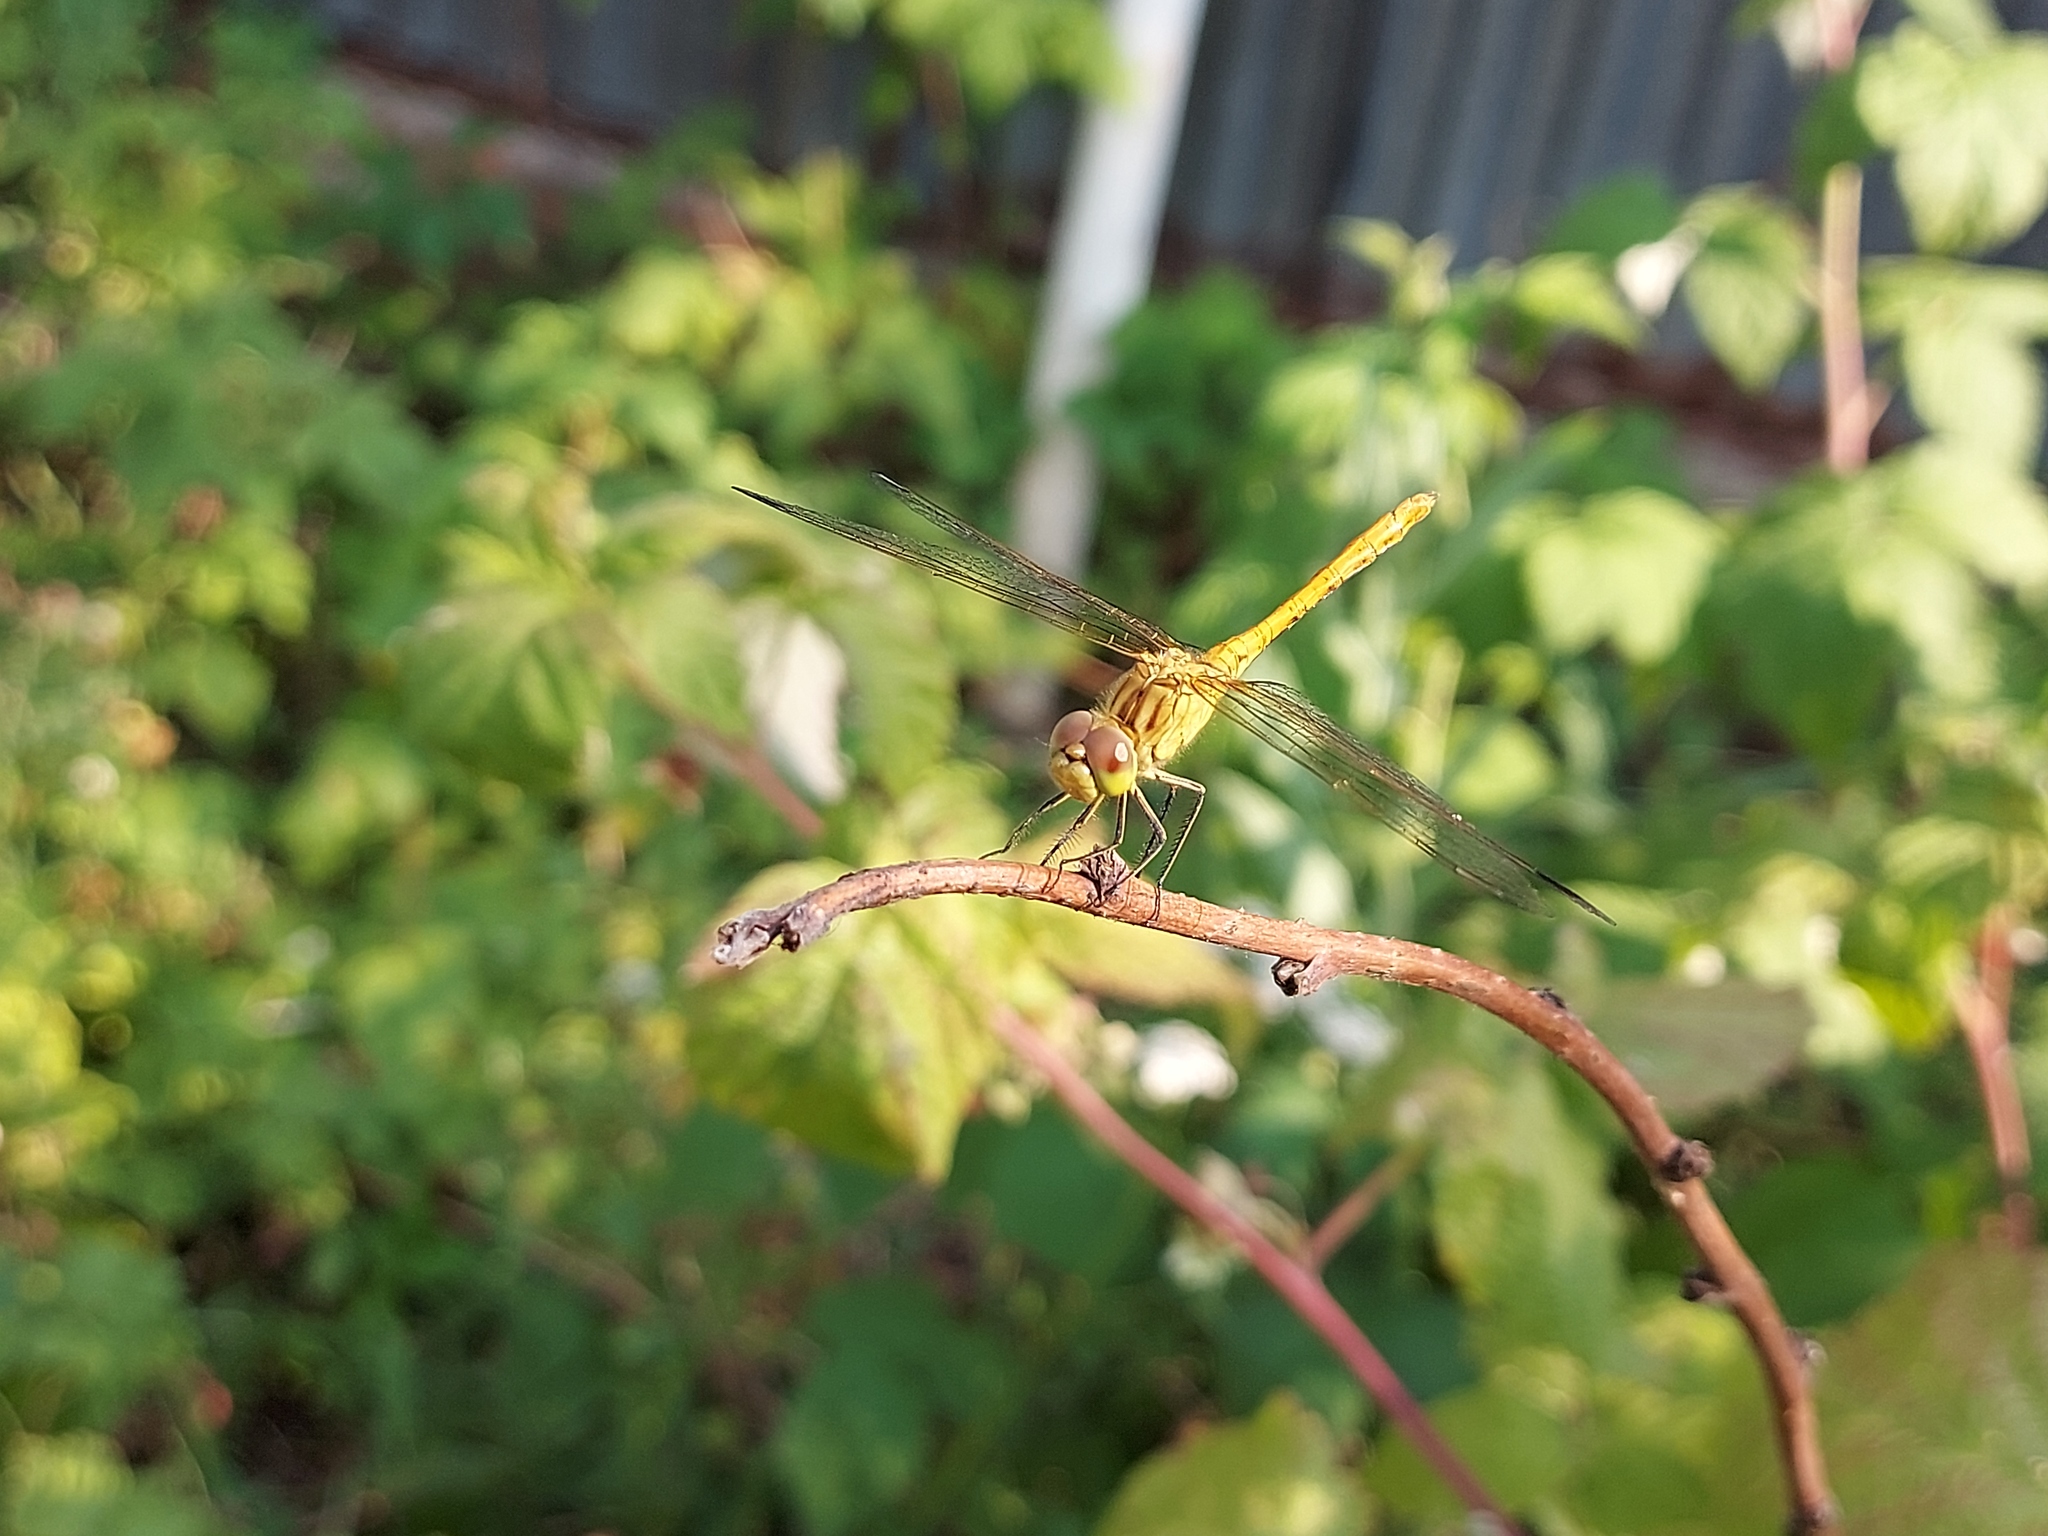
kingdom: Animalia
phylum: Arthropoda
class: Insecta
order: Odonata
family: Libellulidae
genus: Sympetrum
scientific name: Sympetrum meridionale
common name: Southern darter
